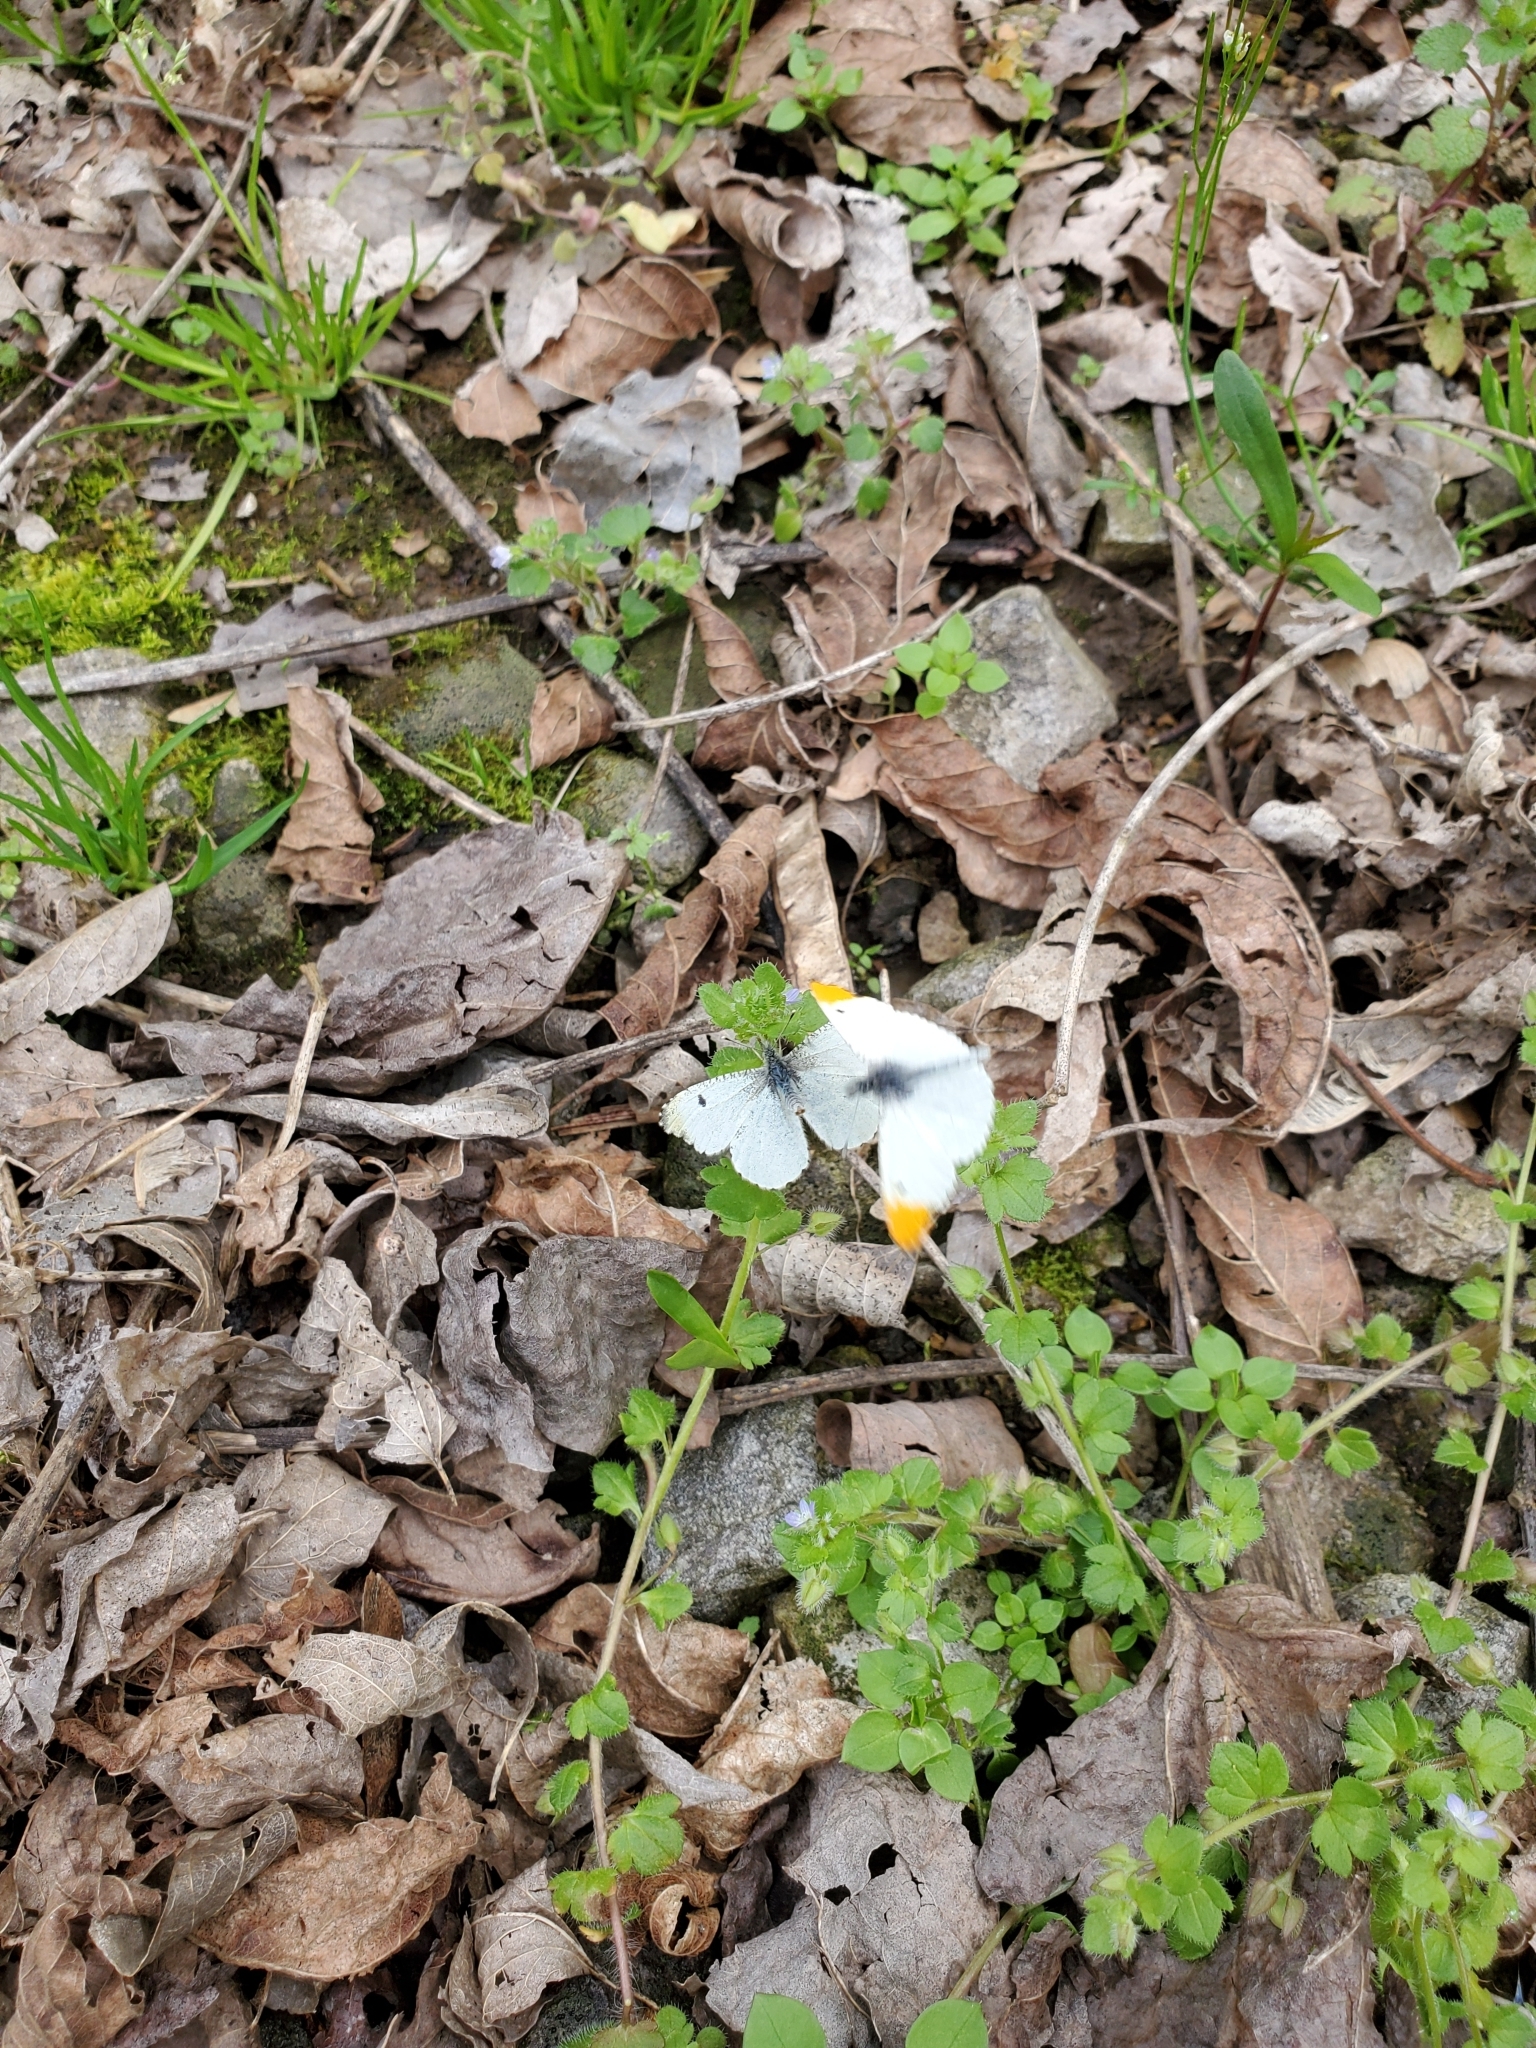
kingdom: Animalia
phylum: Arthropoda
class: Insecta
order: Lepidoptera
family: Pieridae
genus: Anthocharis
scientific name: Anthocharis midea
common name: Falcate orangetip
